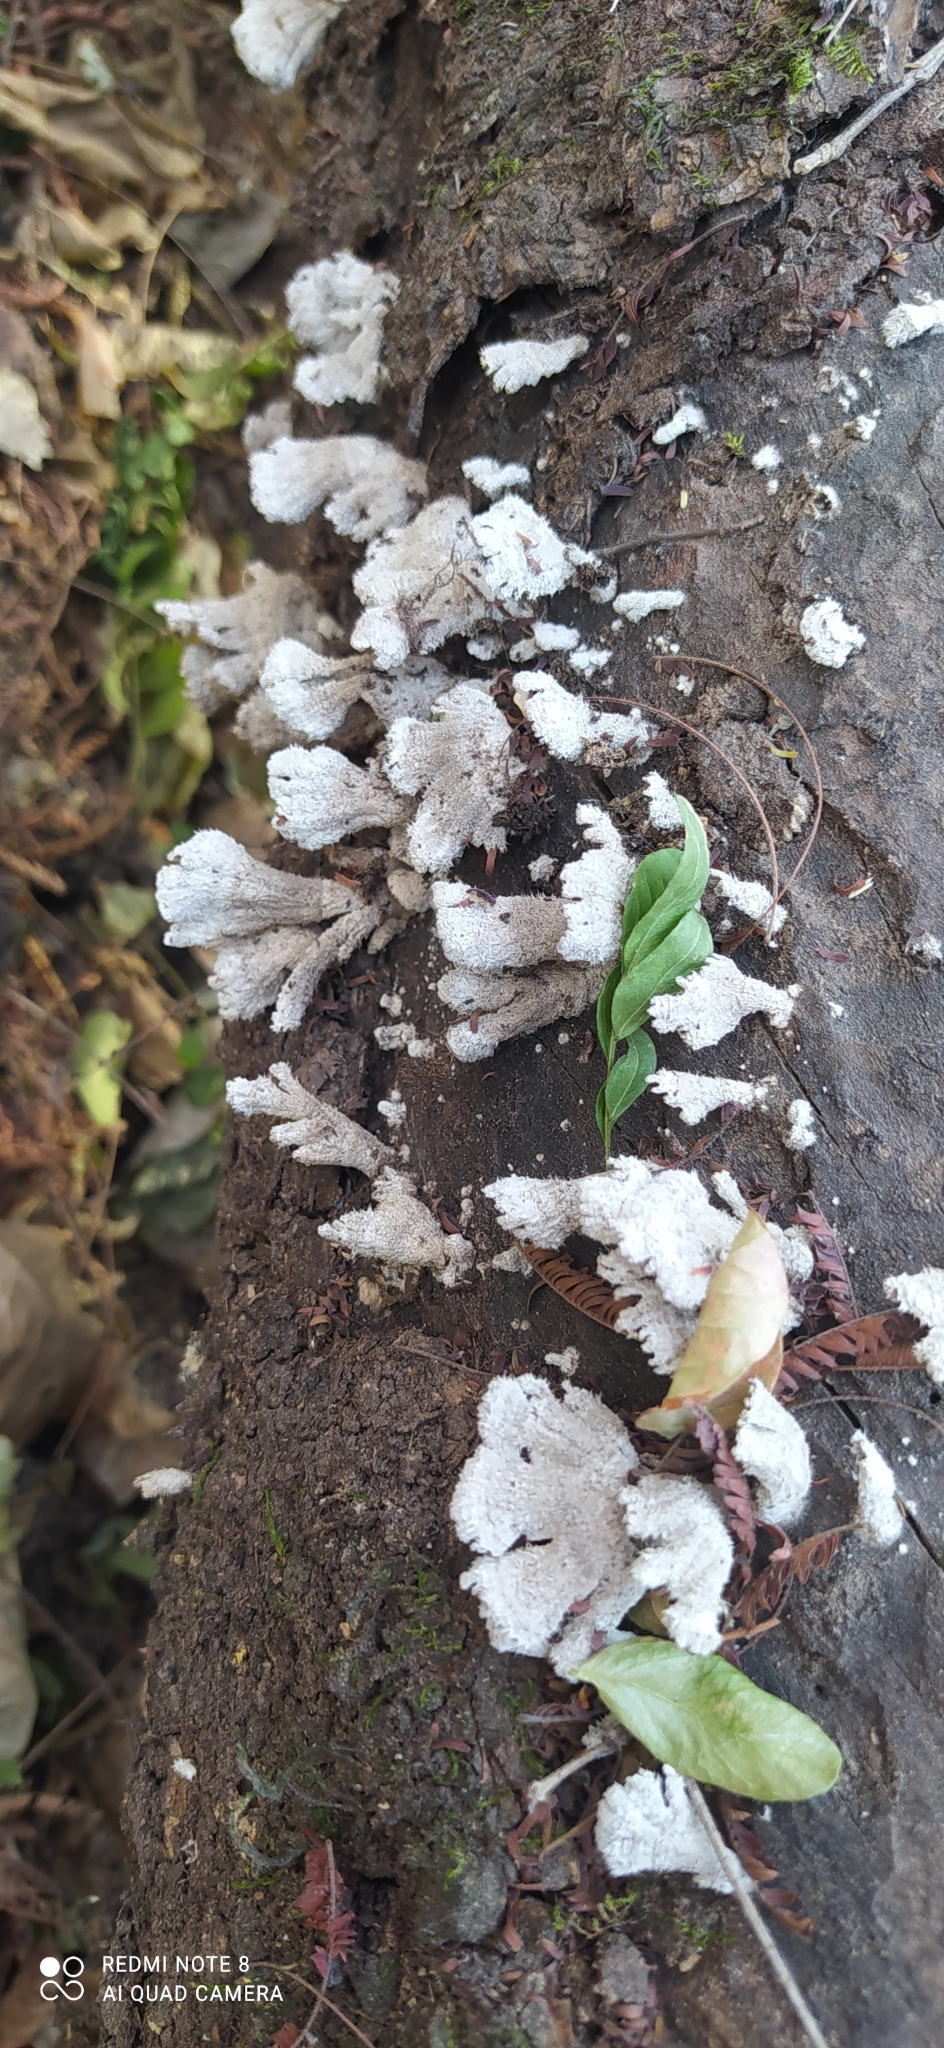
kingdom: Fungi
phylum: Basidiomycota
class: Agaricomycetes
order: Agaricales
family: Schizophyllaceae
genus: Schizophyllum
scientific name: Schizophyllum commune
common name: Common porecrust
